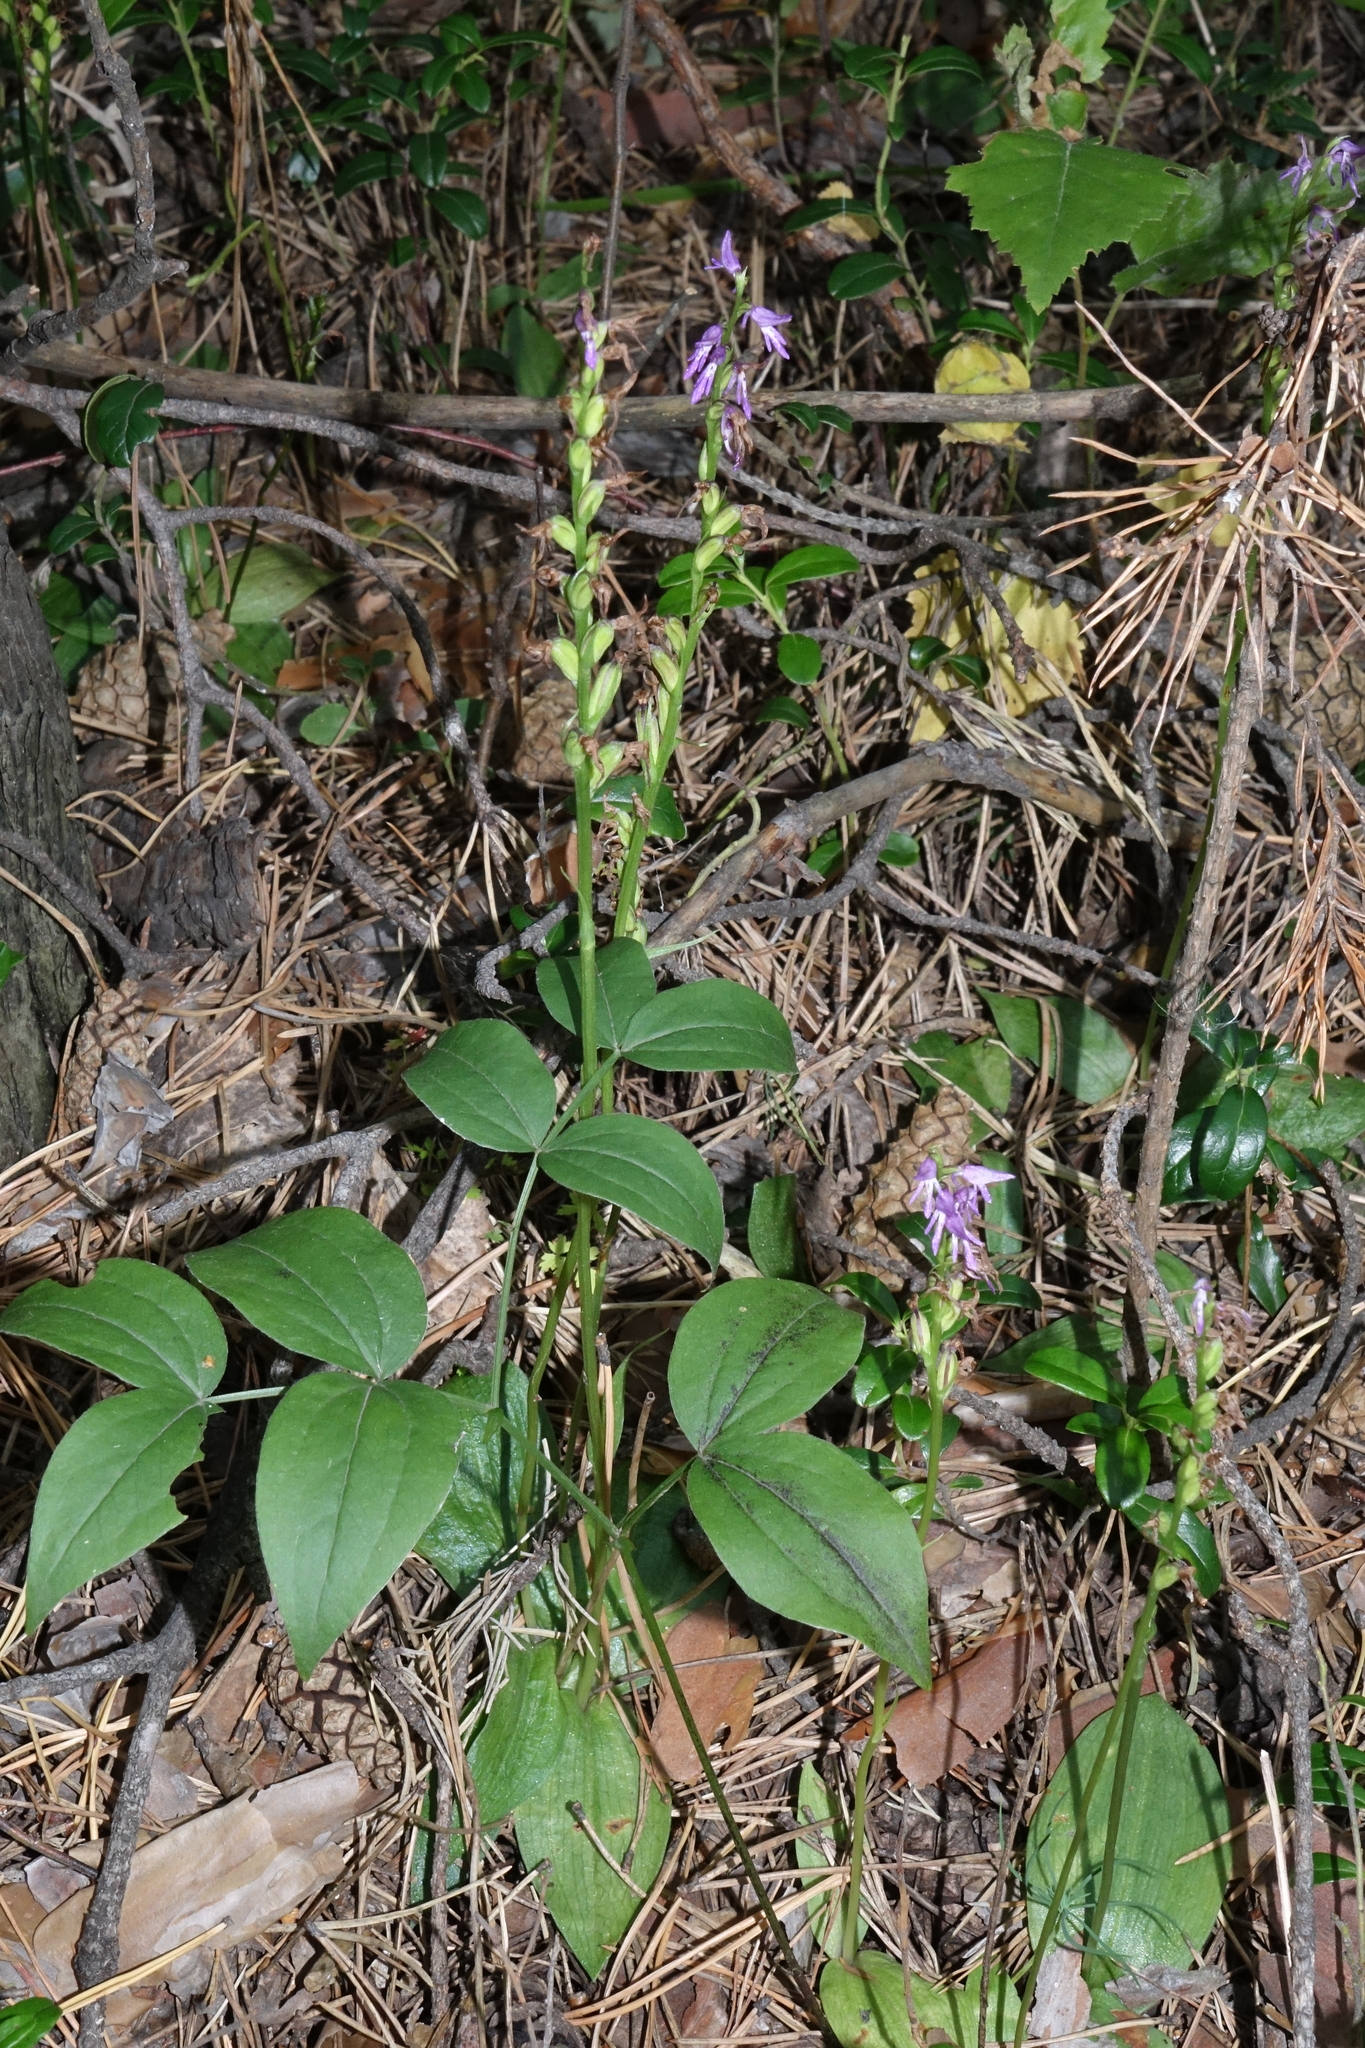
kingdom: Plantae
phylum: Tracheophyta
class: Liliopsida
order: Asparagales
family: Orchidaceae
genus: Hemipilia
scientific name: Hemipilia cucullata
